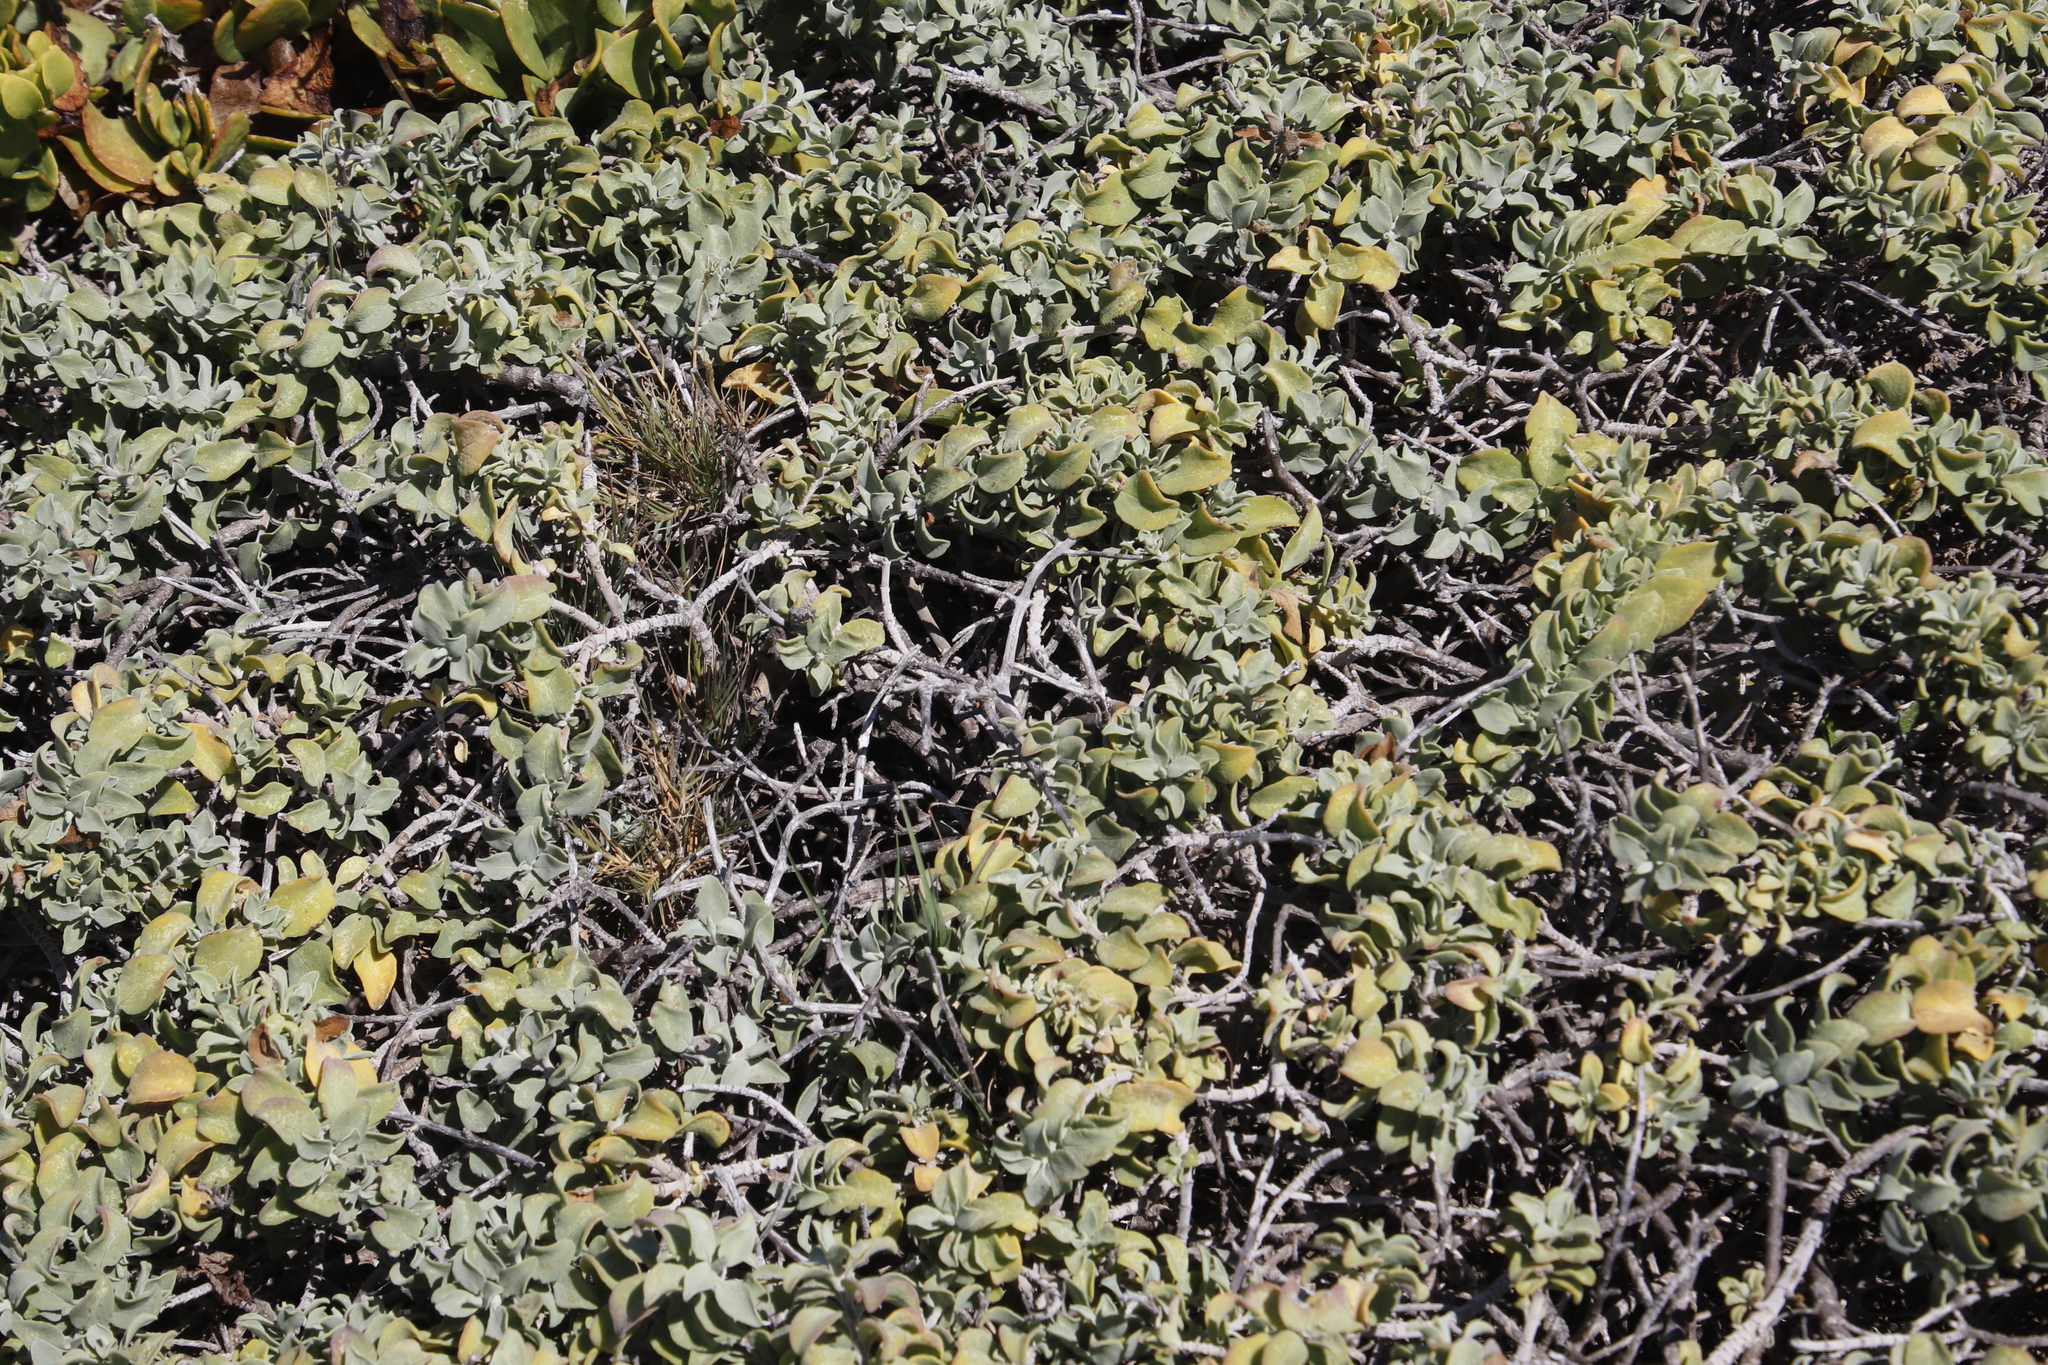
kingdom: Plantae
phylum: Tracheophyta
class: Magnoliopsida
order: Lamiales
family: Lamiaceae
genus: Salvia
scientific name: Salvia aurea
